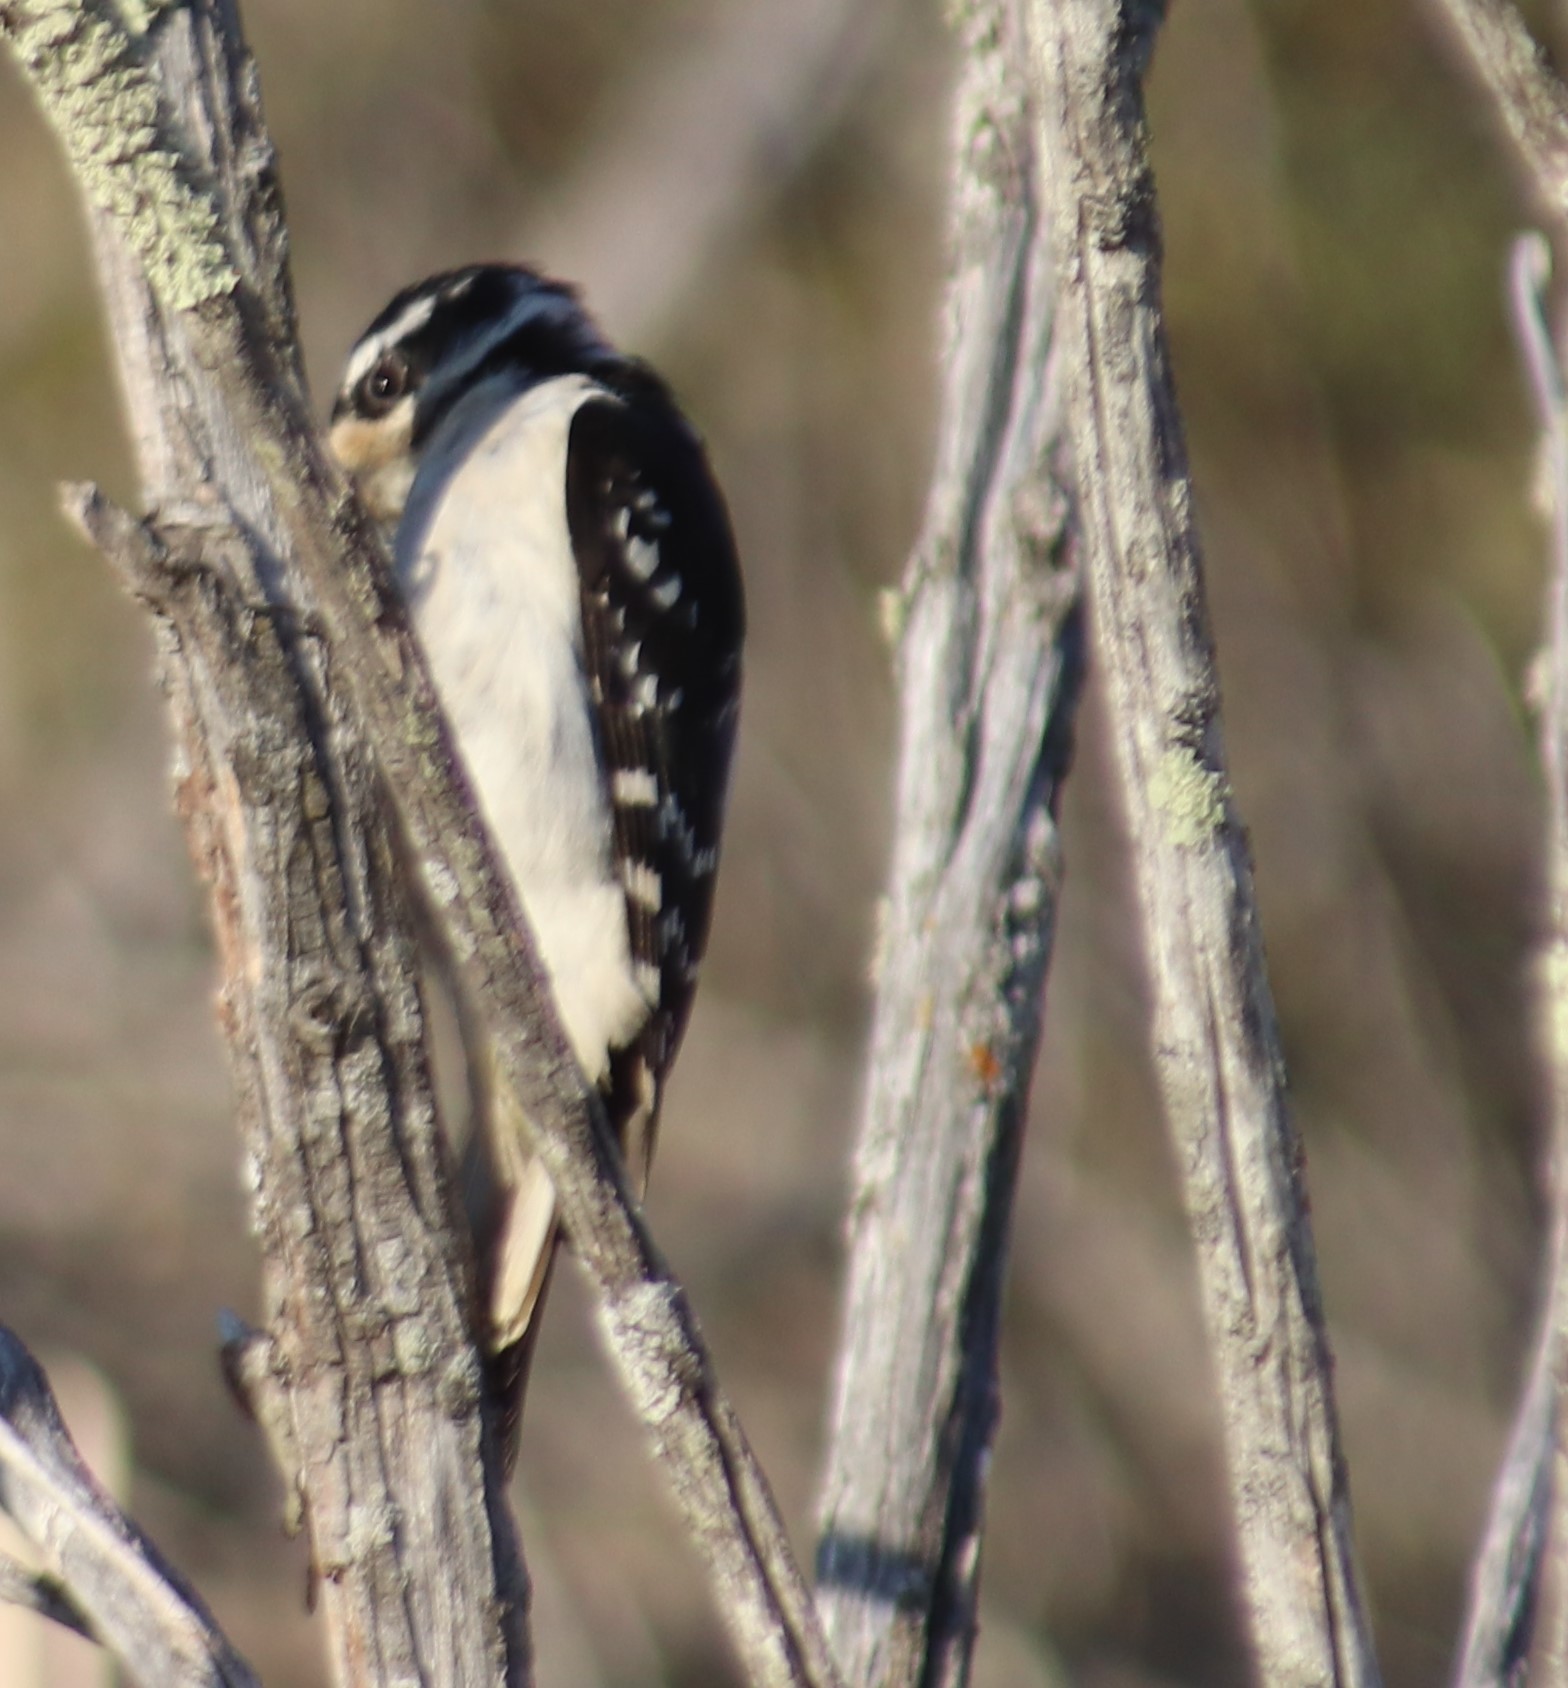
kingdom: Animalia
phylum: Chordata
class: Aves
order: Piciformes
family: Picidae
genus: Leuconotopicus
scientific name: Leuconotopicus villosus
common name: Hairy woodpecker
